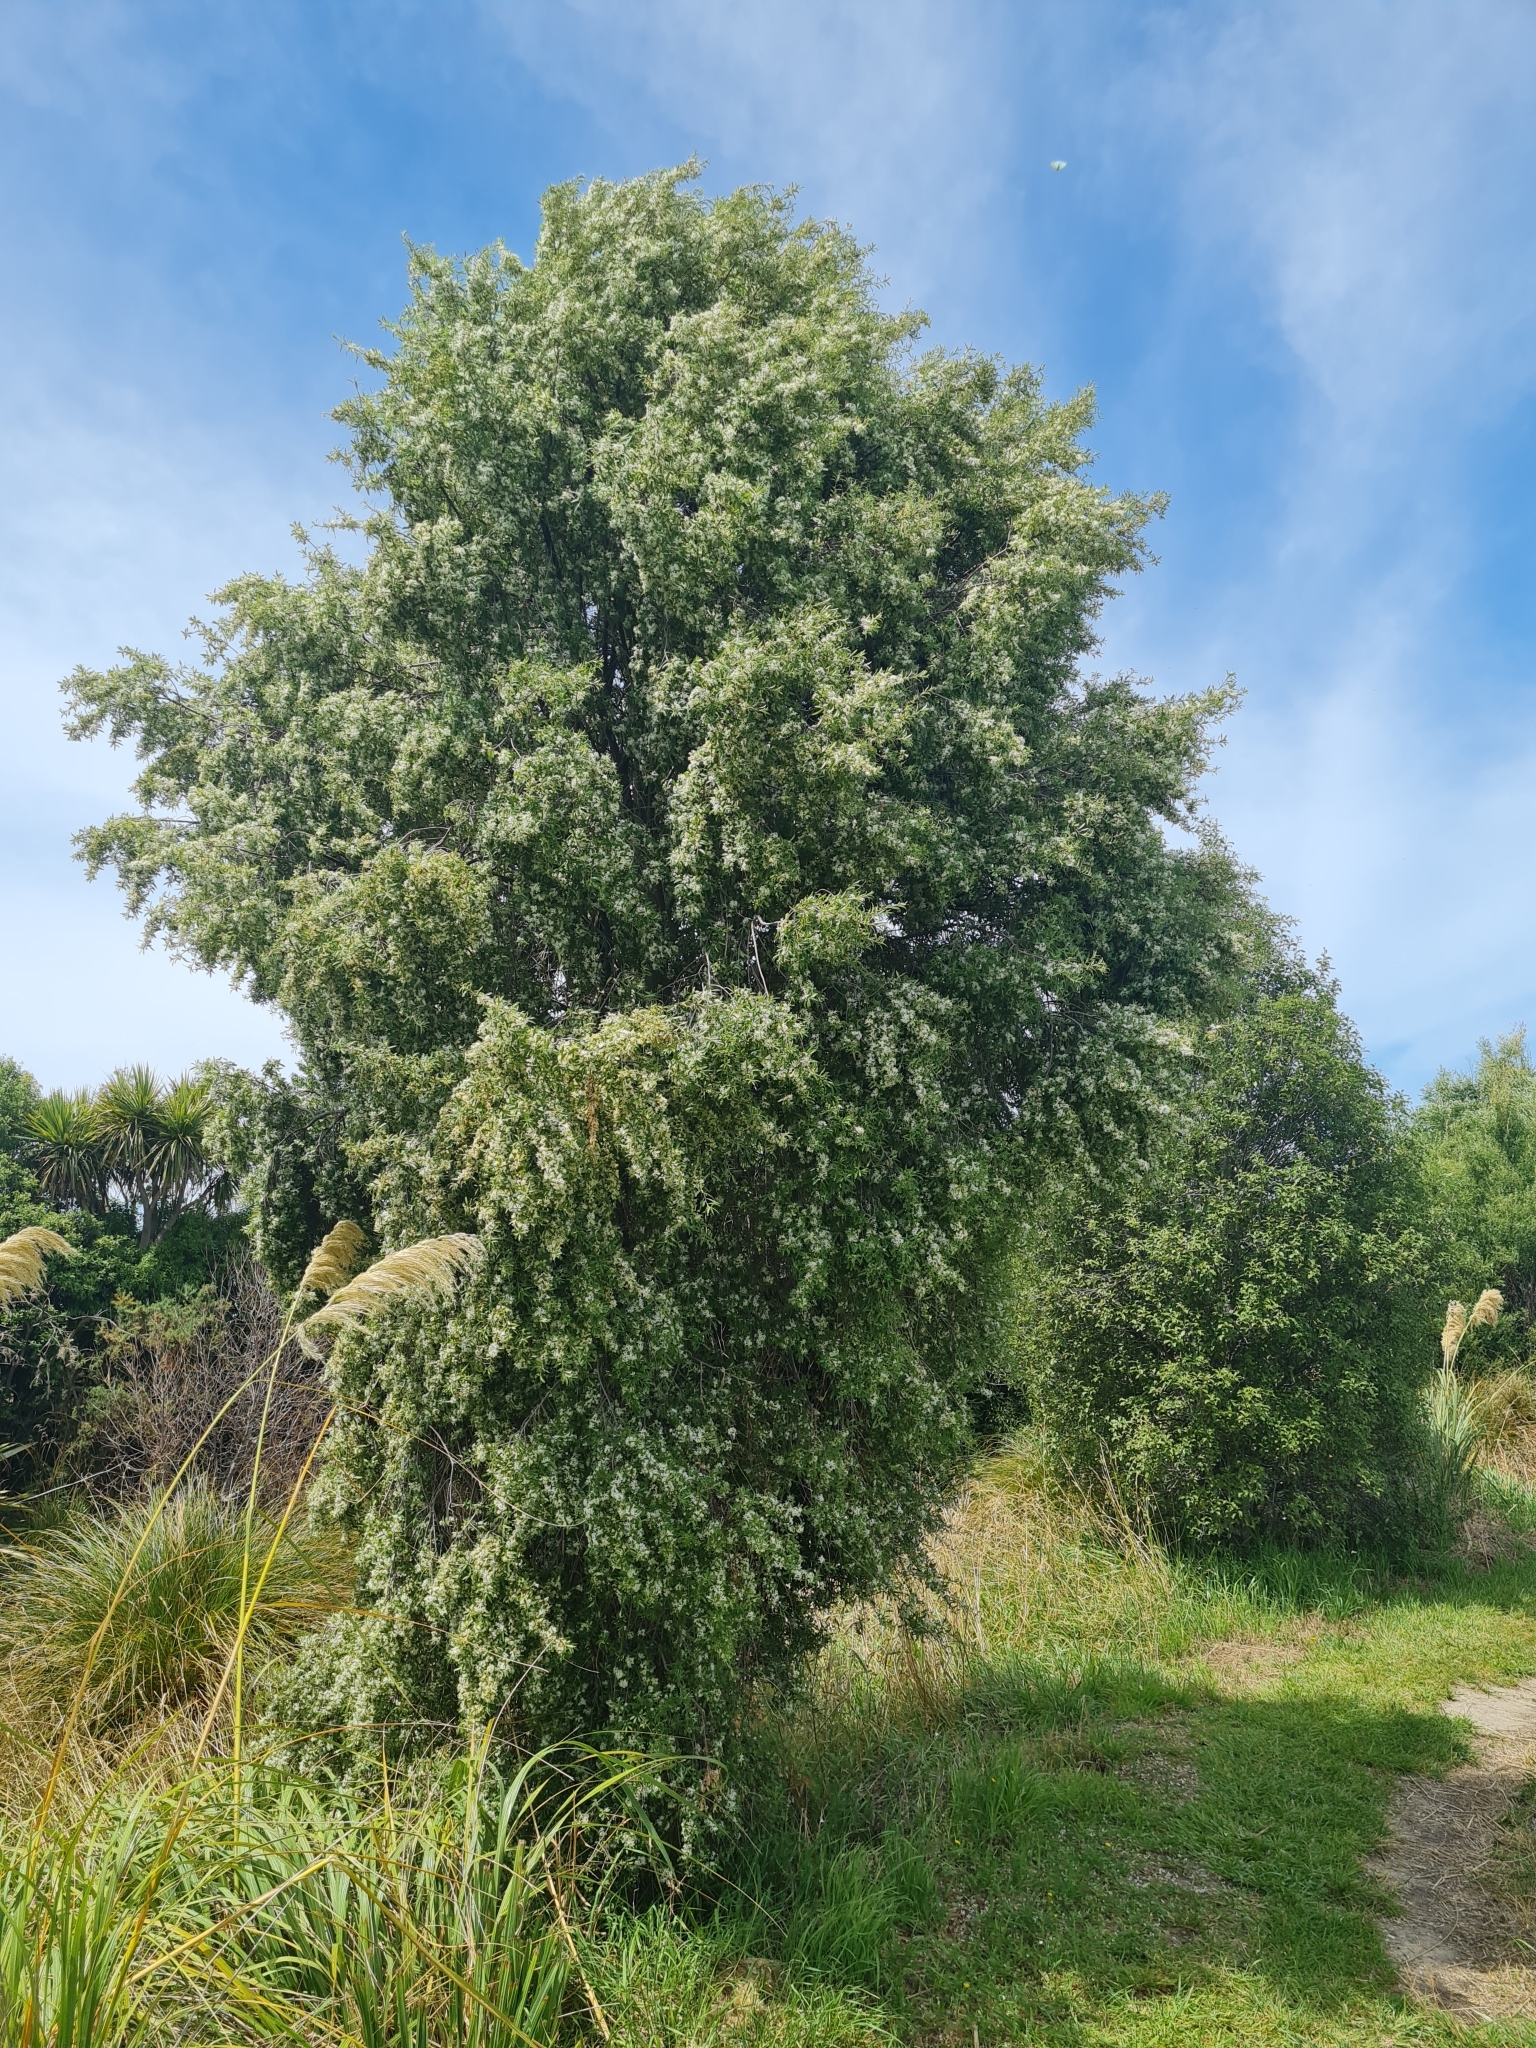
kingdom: Plantae
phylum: Tracheophyta
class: Magnoliopsida
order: Malvales
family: Malvaceae
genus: Hoheria
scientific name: Hoheria angustifolia
